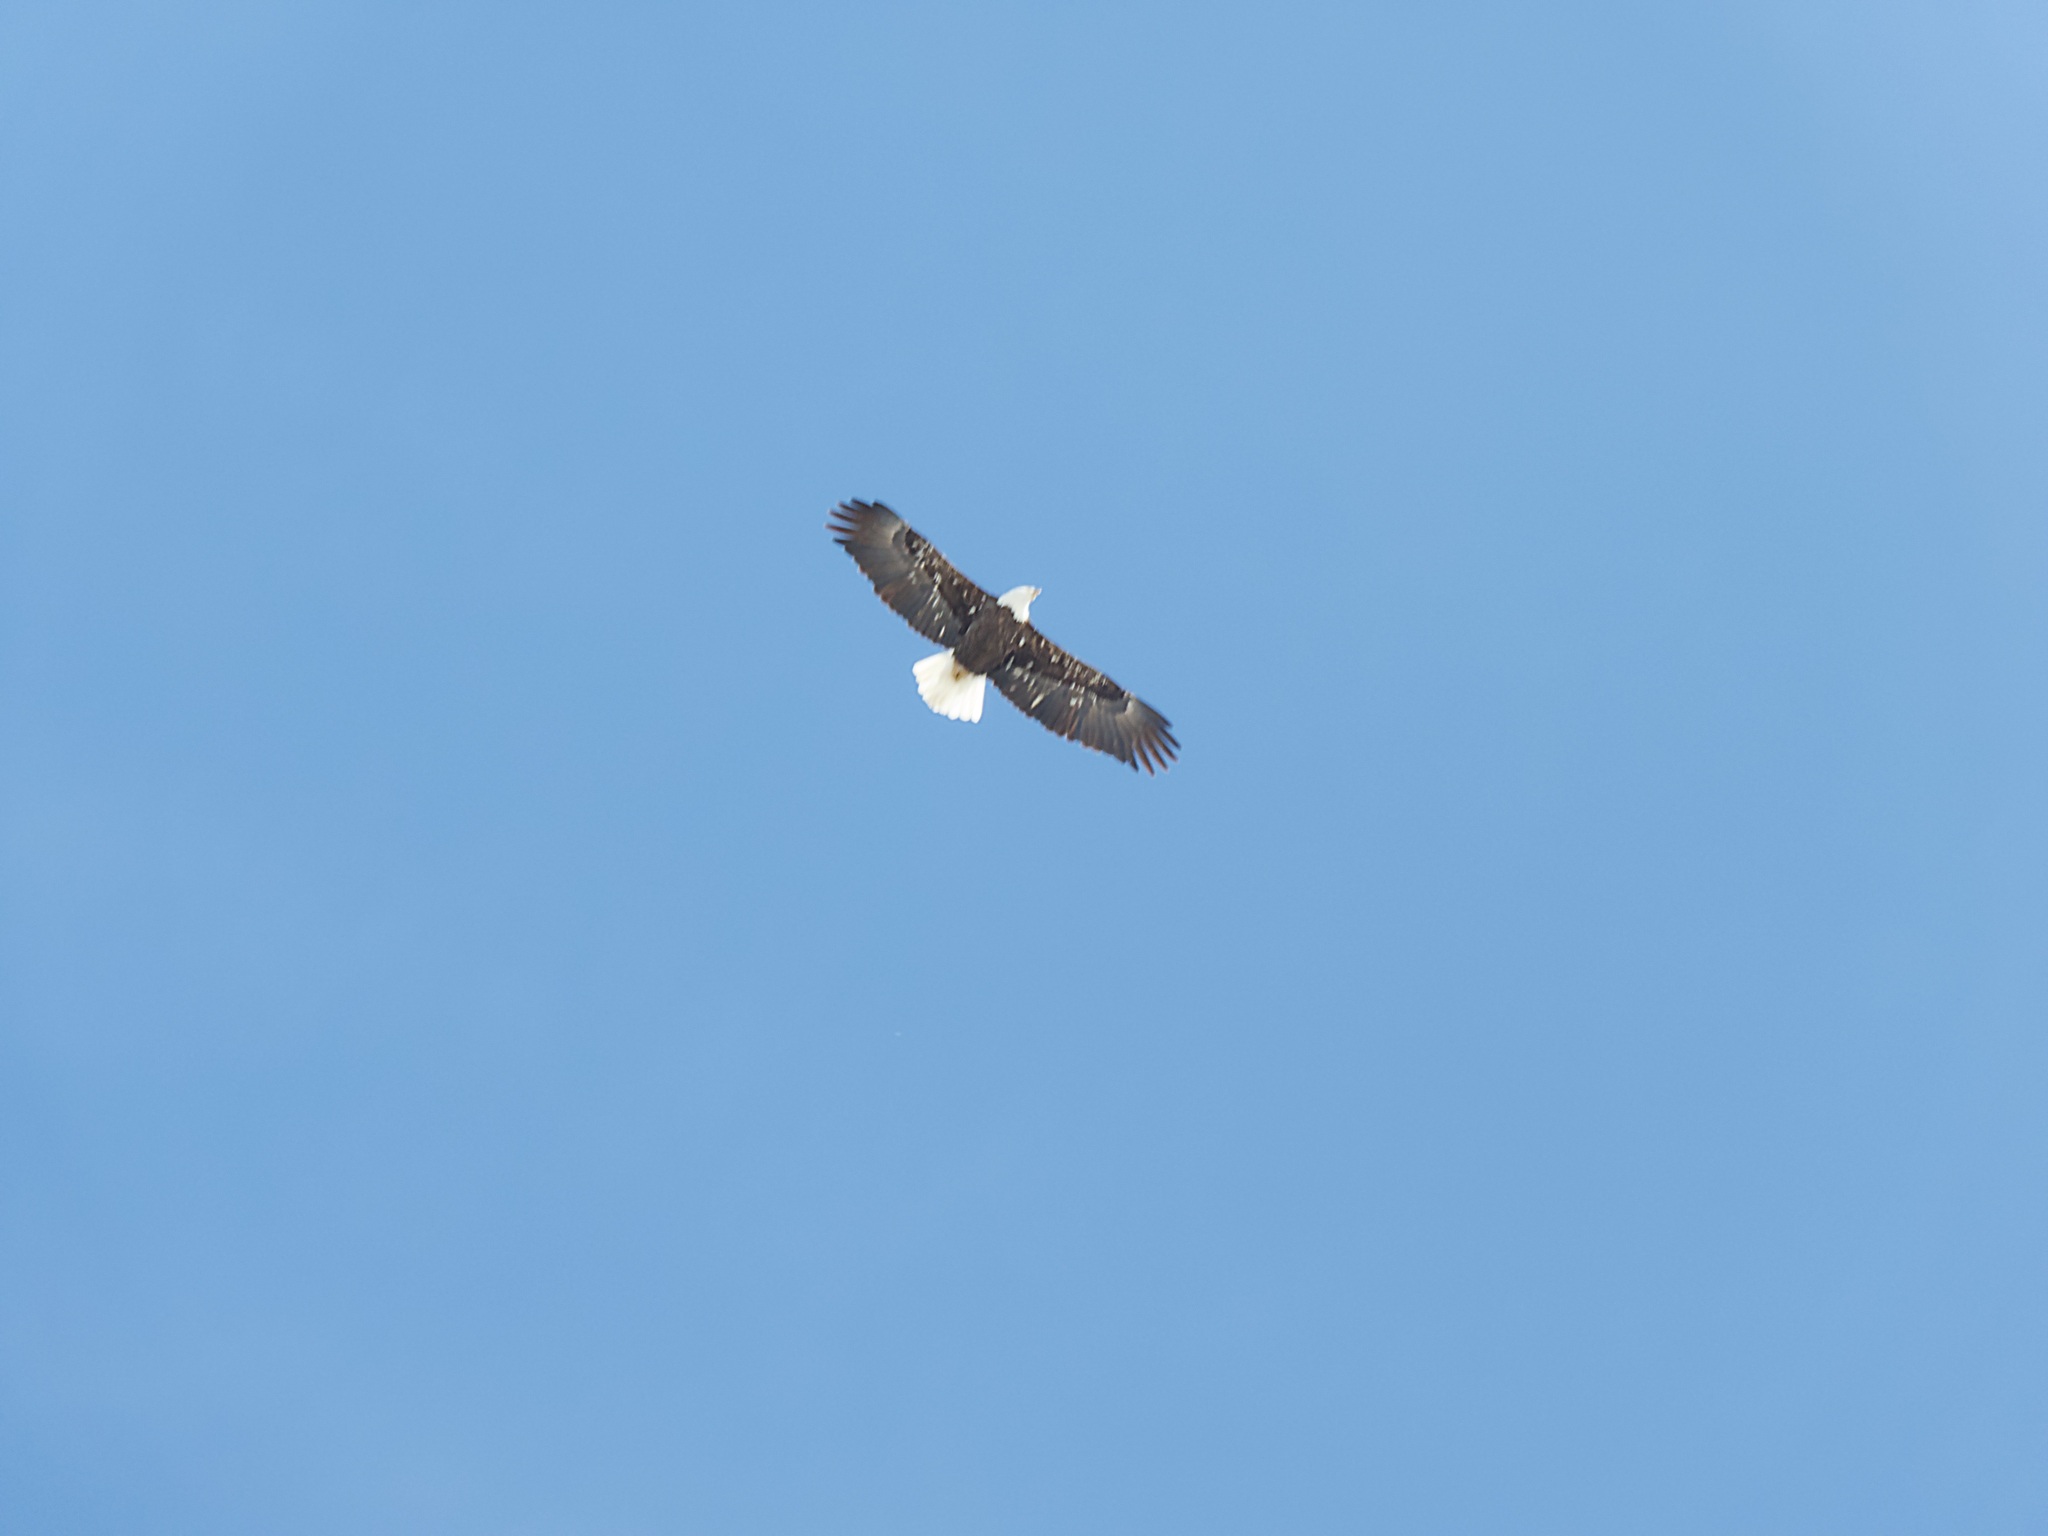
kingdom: Animalia
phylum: Chordata
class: Aves
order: Accipitriformes
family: Accipitridae
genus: Haliaeetus
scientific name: Haliaeetus leucocephalus
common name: Bald eagle
